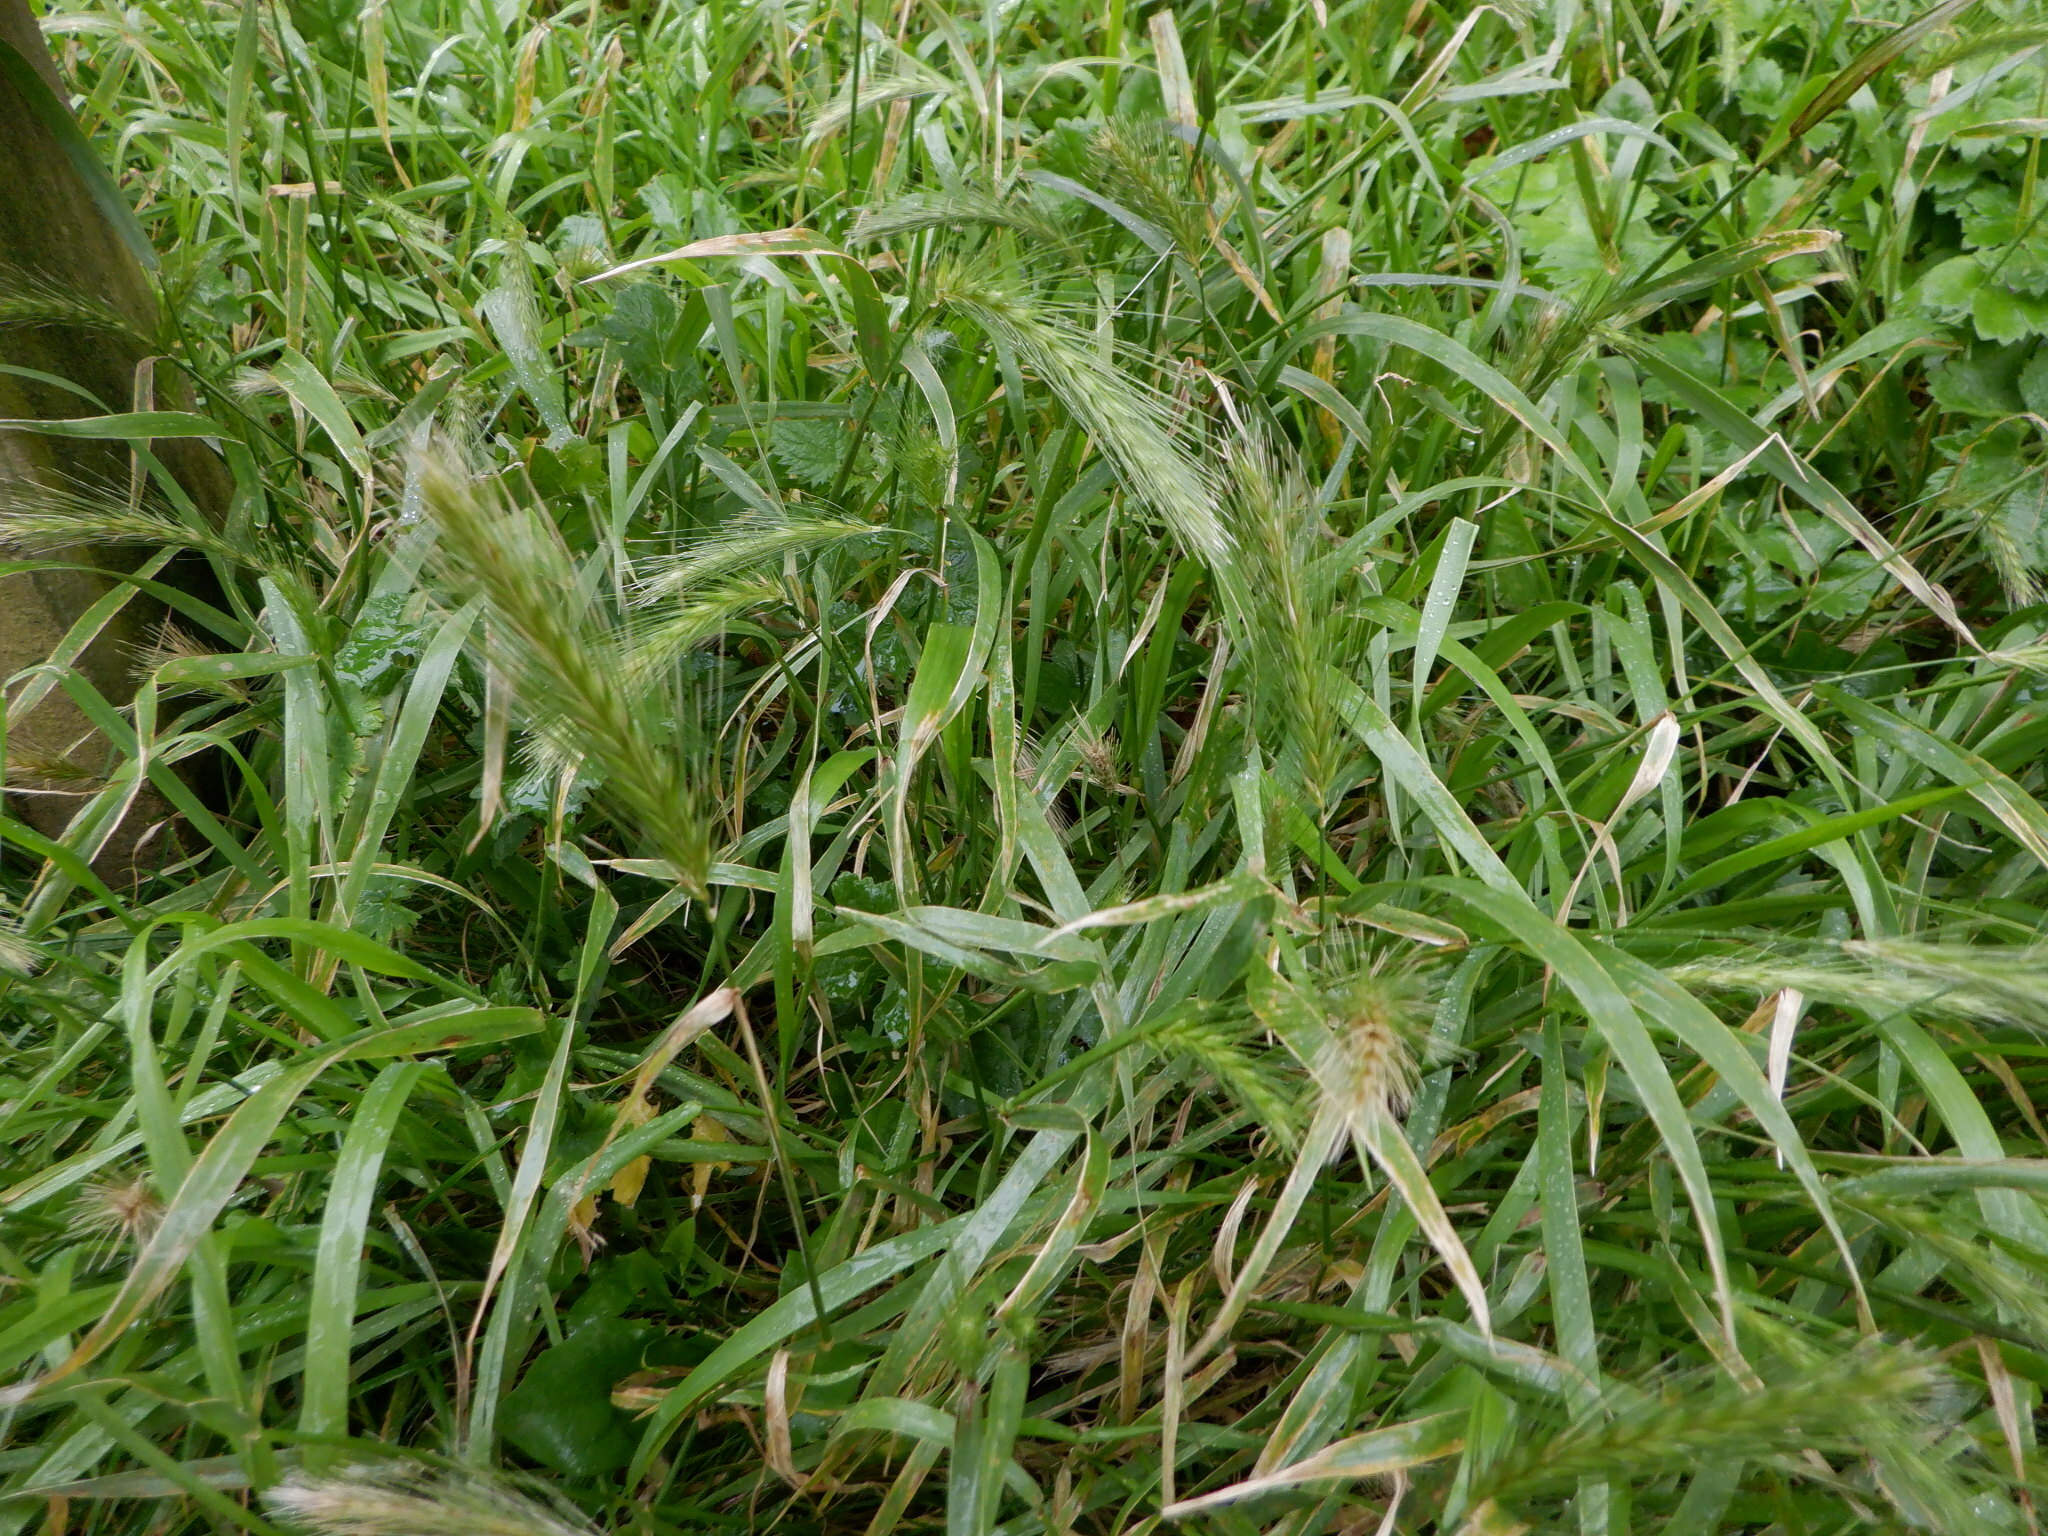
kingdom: Plantae
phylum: Tracheophyta
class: Liliopsida
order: Poales
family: Poaceae
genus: Hordeum
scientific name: Hordeum murinum
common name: Wall barley
